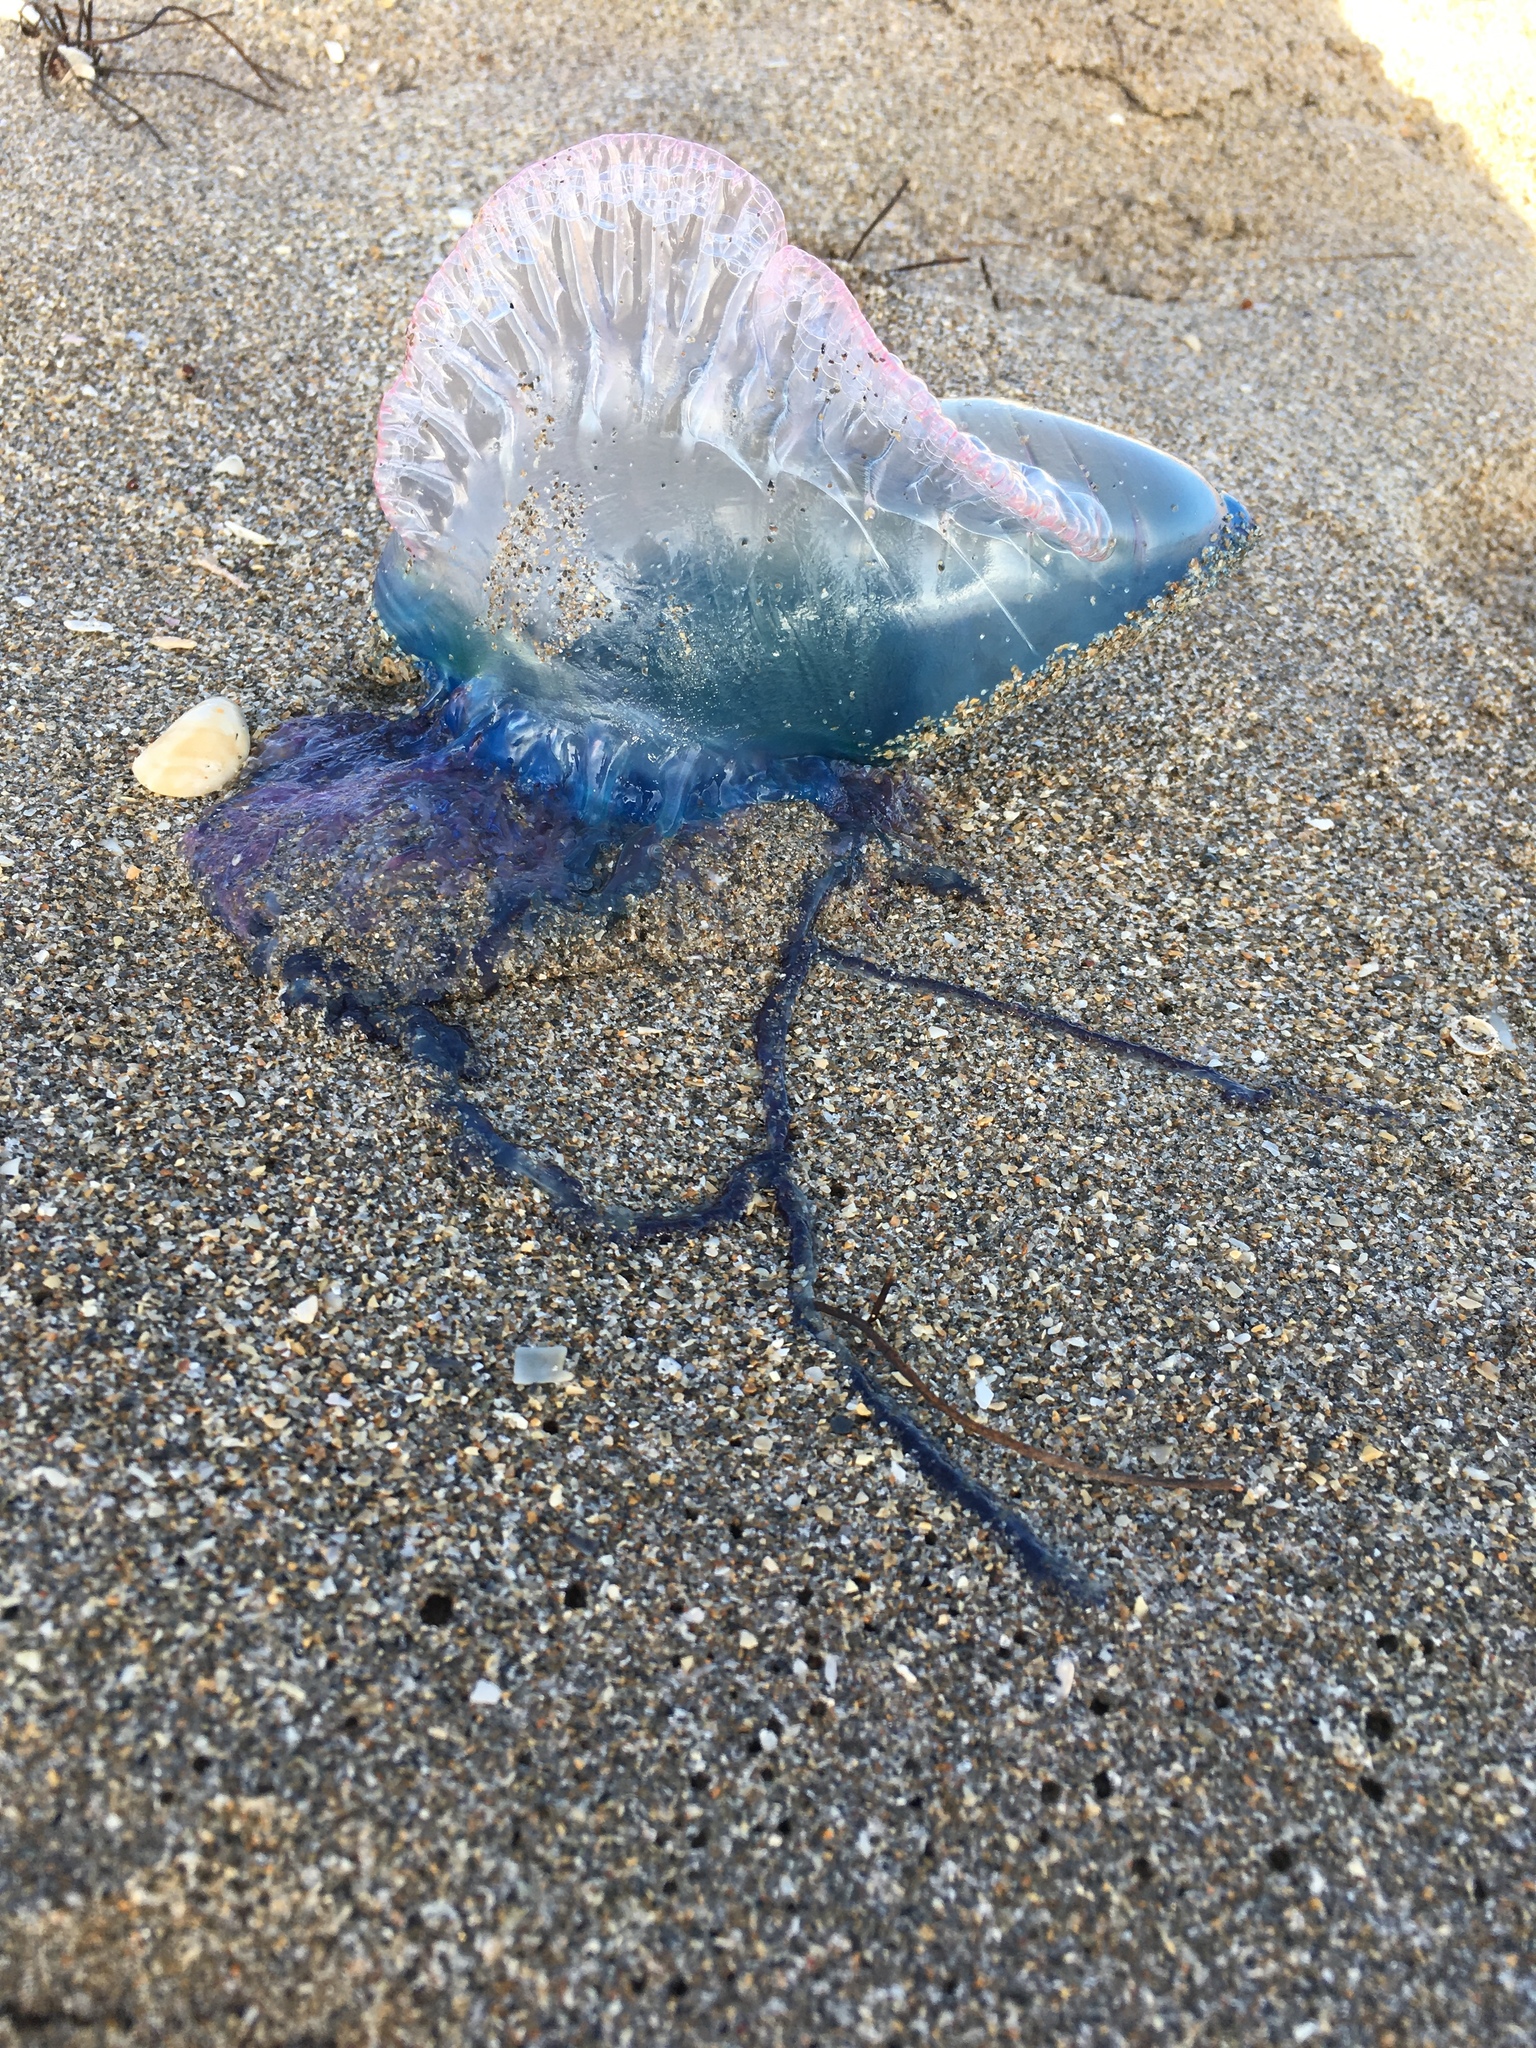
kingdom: Animalia
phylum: Cnidaria
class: Hydrozoa
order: Siphonophorae
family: Physaliidae
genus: Physalia
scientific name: Physalia physalis
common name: Portuguese man-of-war
